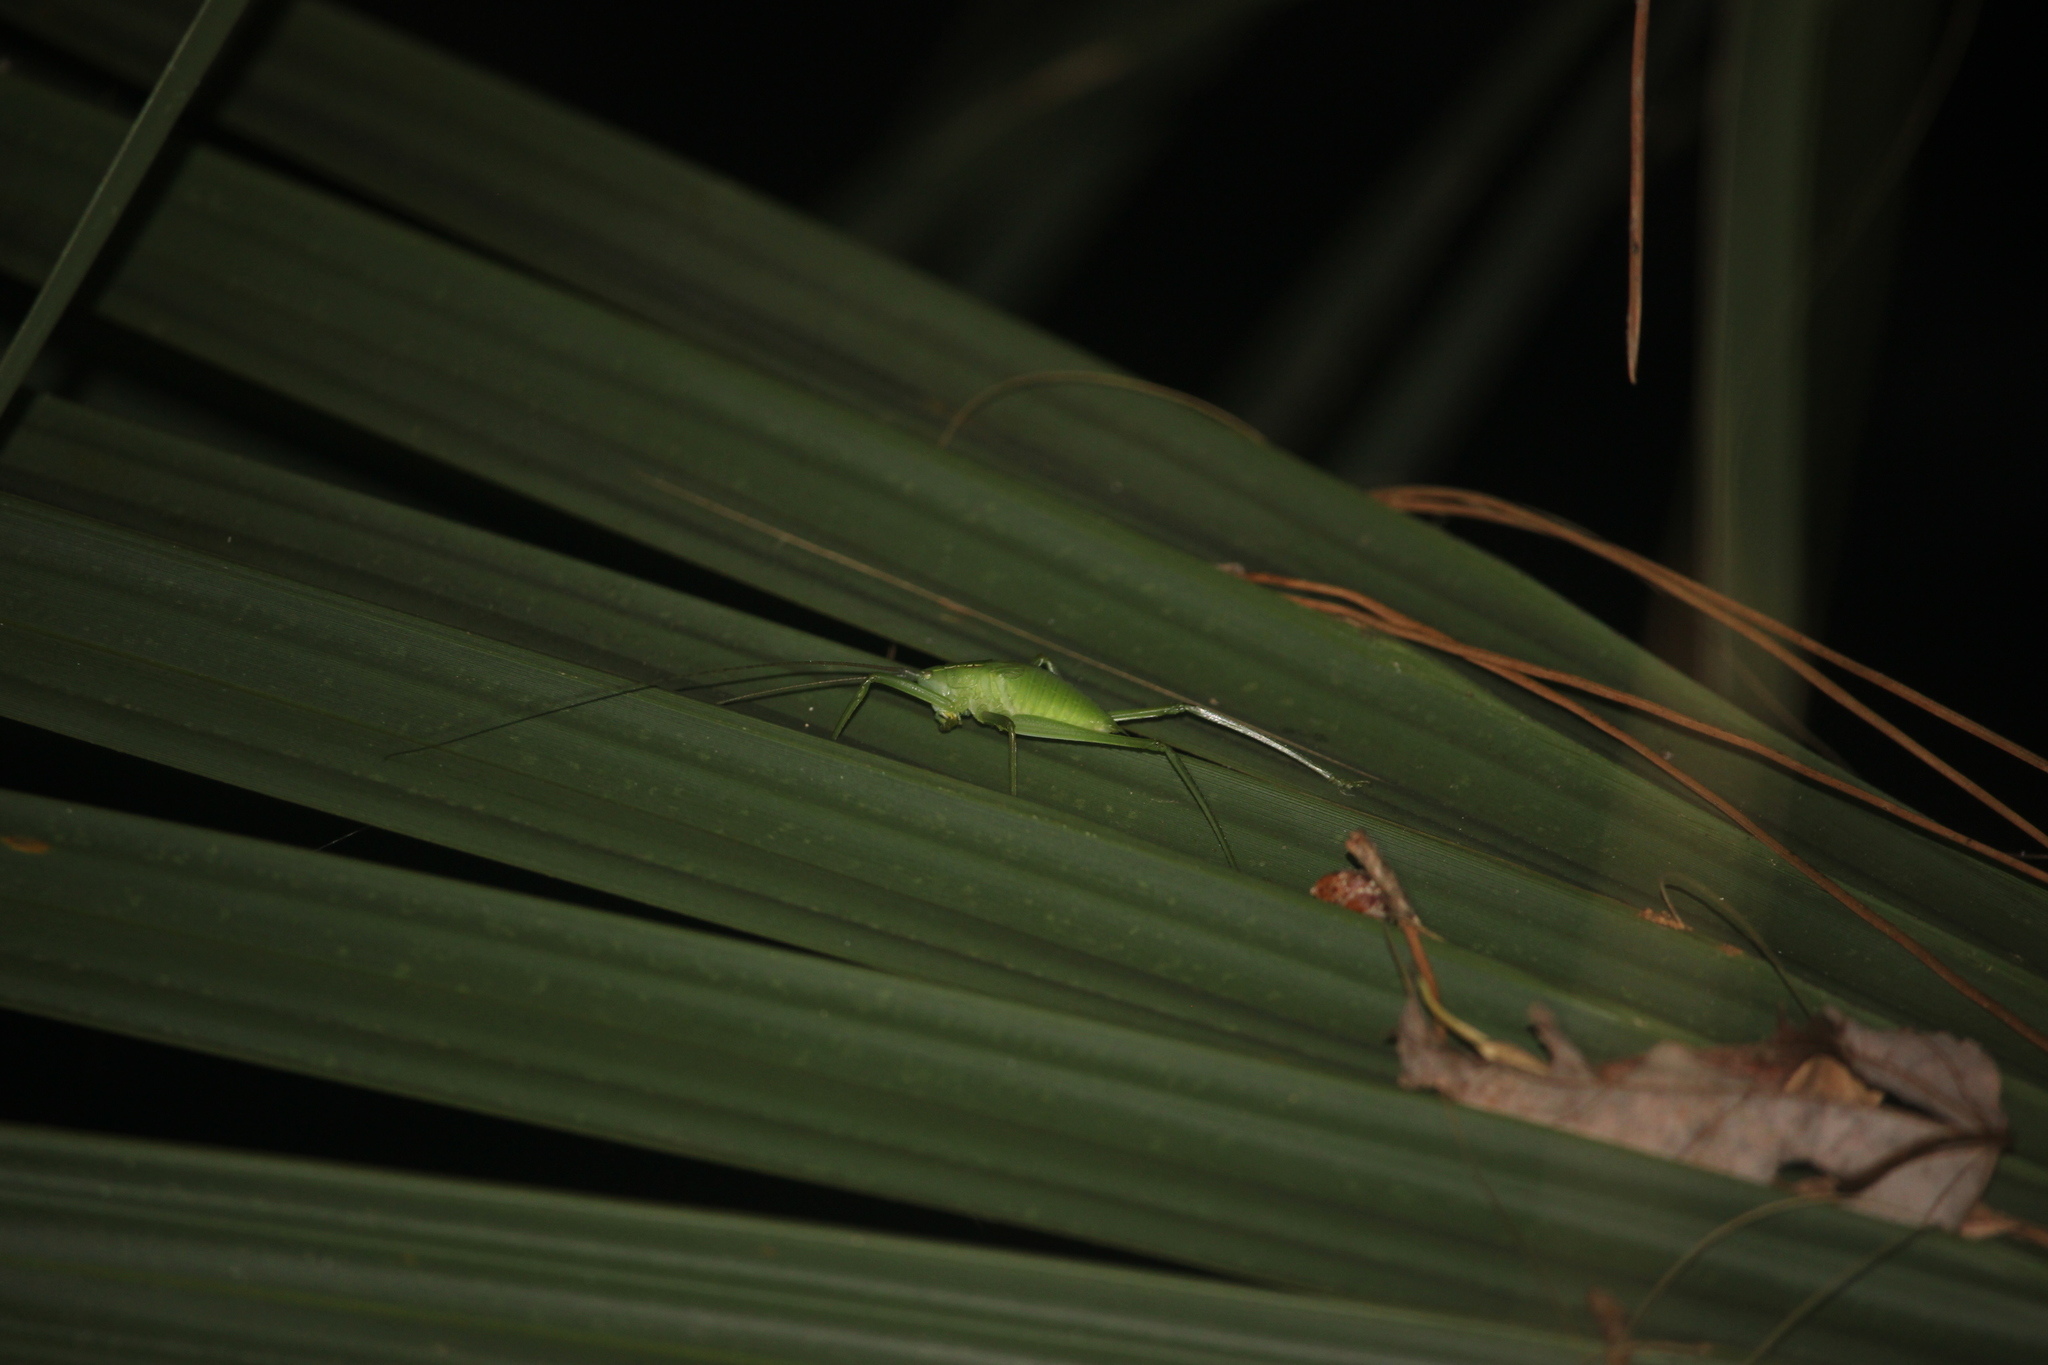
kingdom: Animalia
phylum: Arthropoda
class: Insecta
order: Orthoptera
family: Tettigoniidae
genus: Lea
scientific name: Lea floridensis
